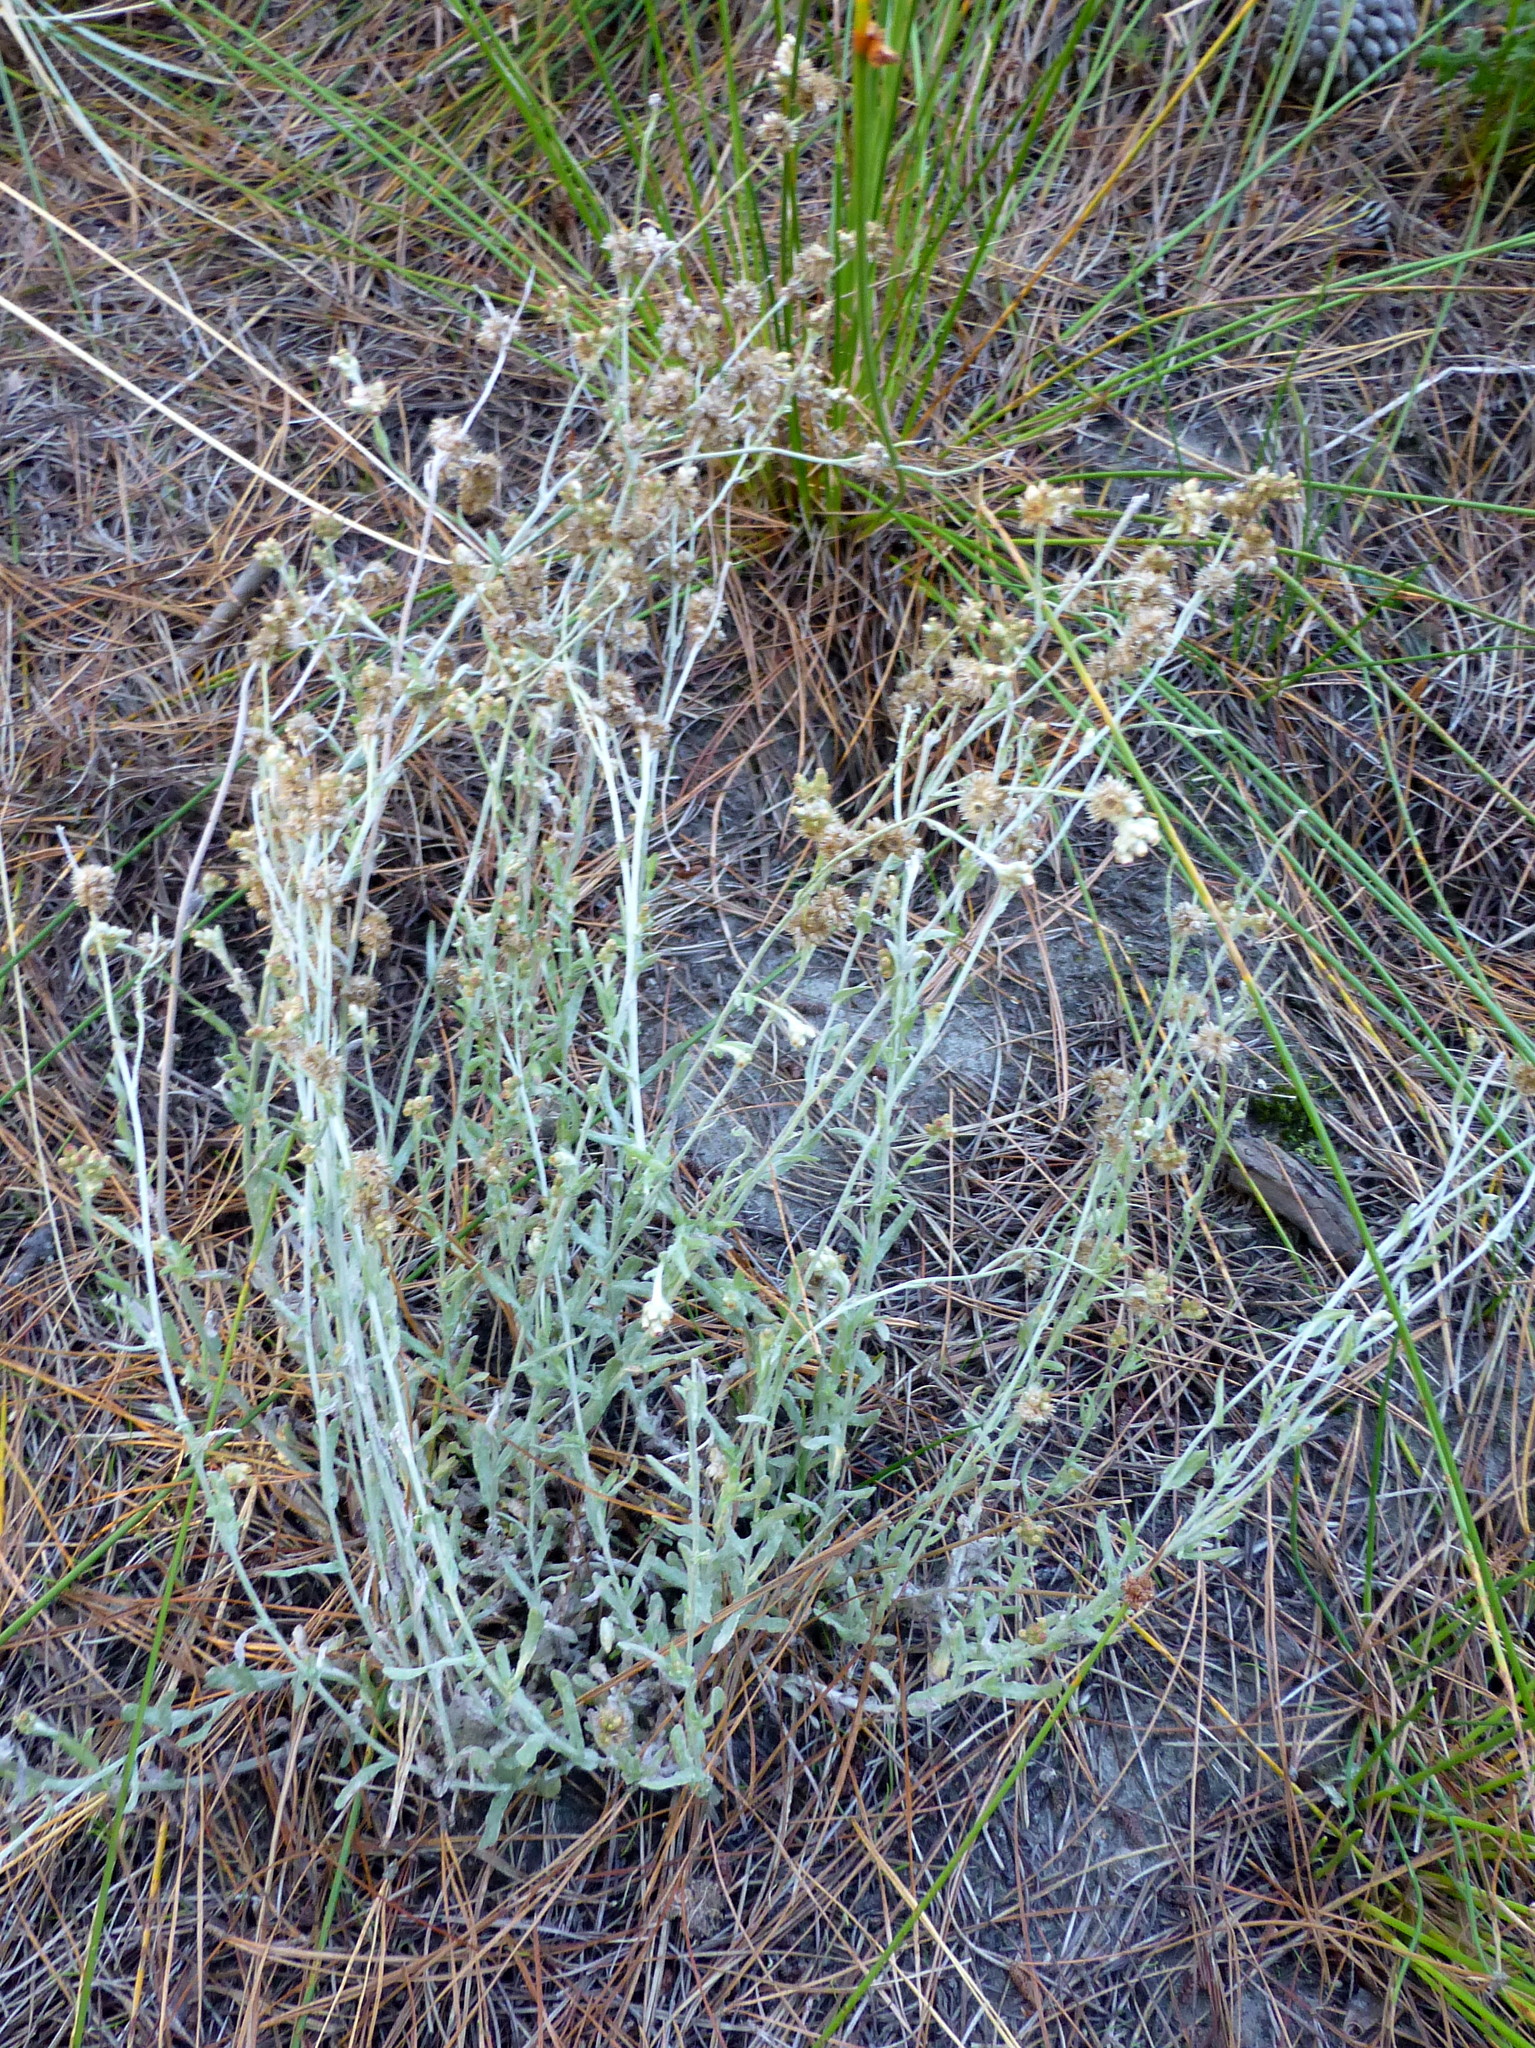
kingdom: Plantae
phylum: Tracheophyta
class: Magnoliopsida
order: Asterales
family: Asteraceae
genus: Helichrysum
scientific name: Helichrysum luteoalbum
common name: Daisy
